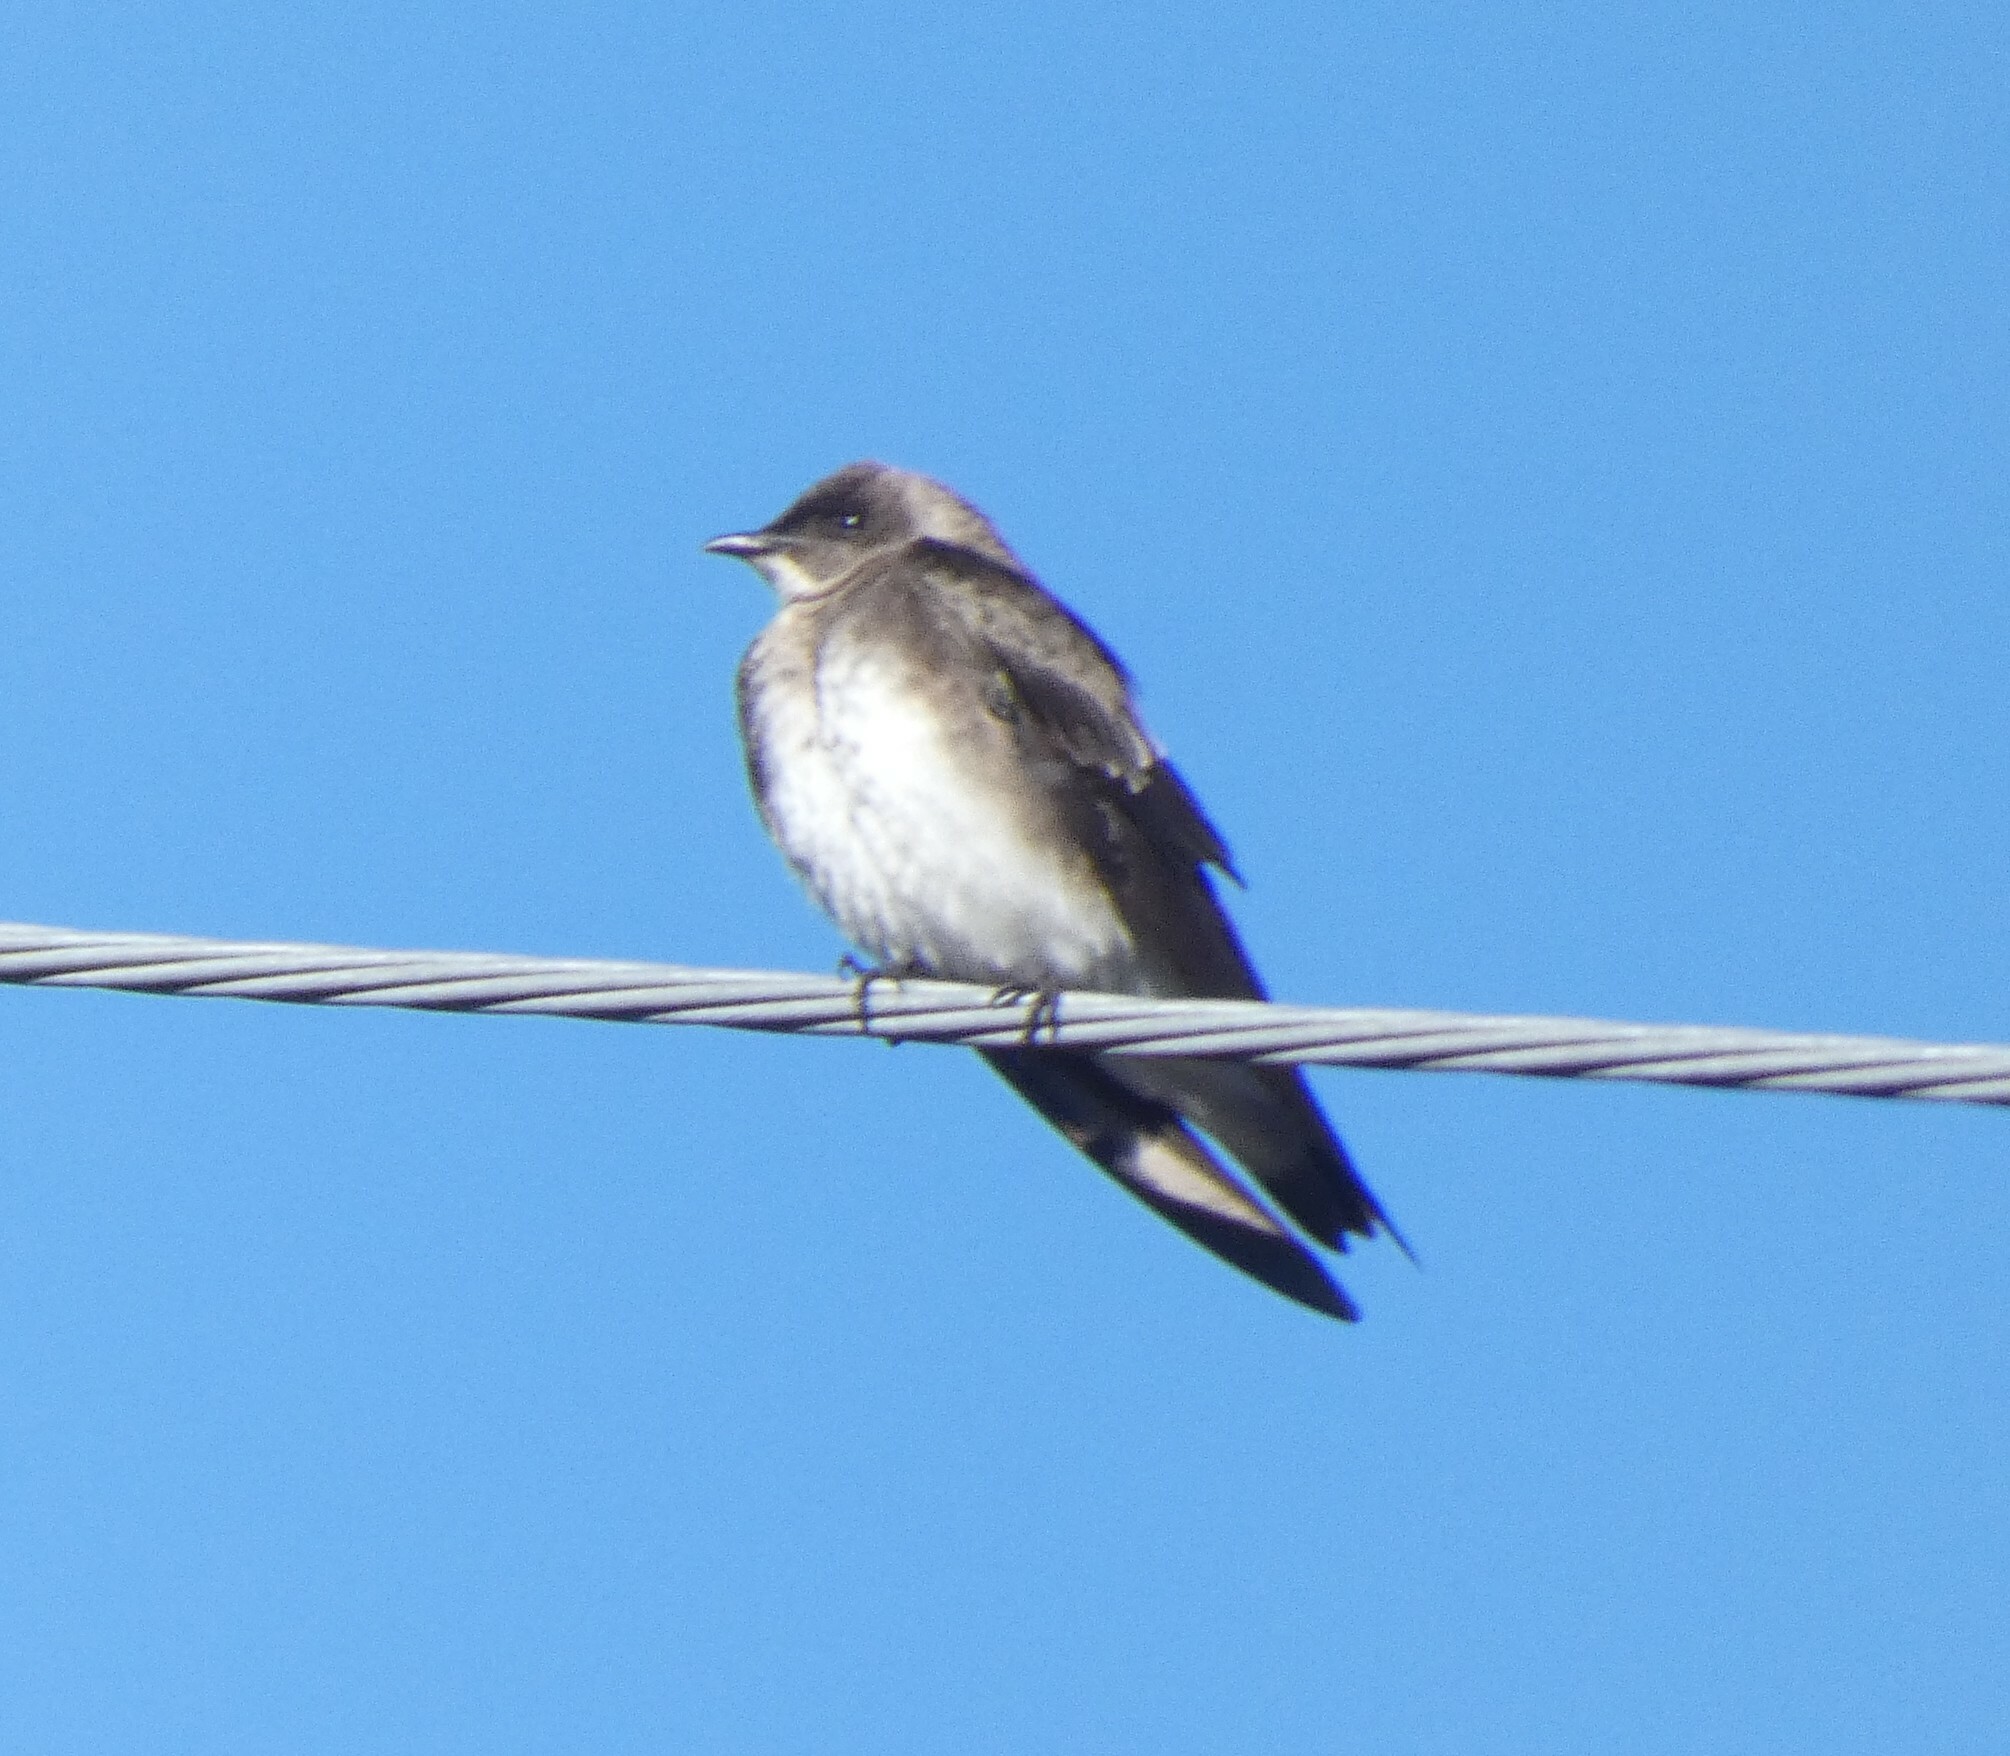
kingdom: Animalia
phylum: Chordata
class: Aves
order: Passeriformes
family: Hirundinidae
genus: Progne
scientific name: Progne tapera
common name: Brown-chested martin
